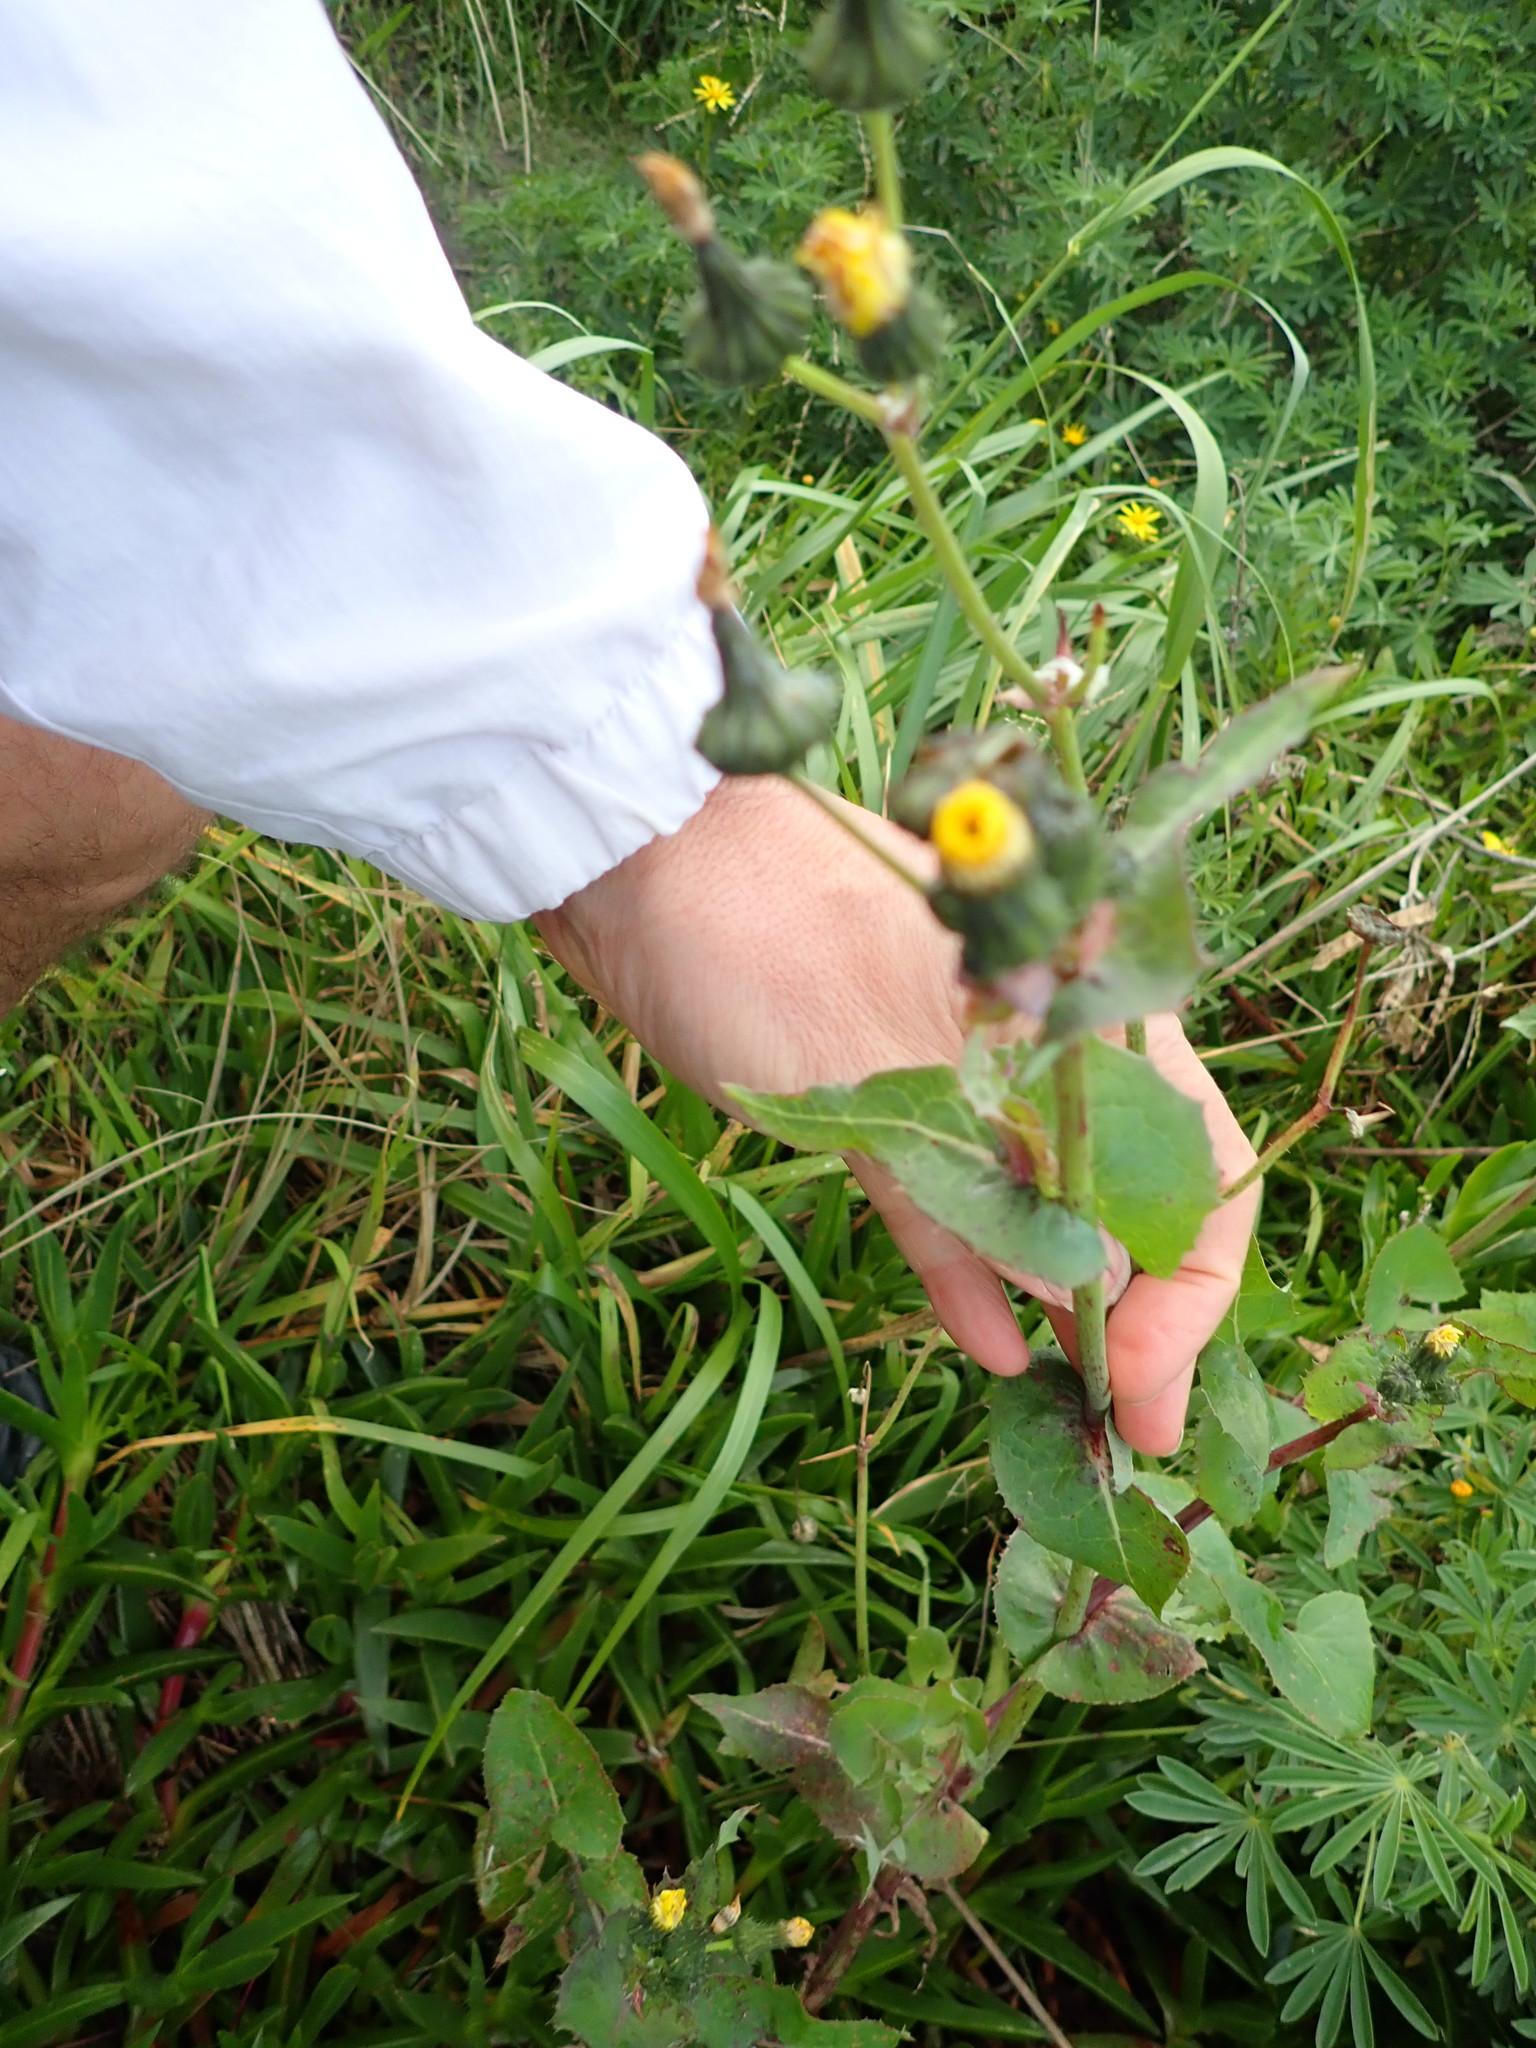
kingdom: Plantae
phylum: Tracheophyta
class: Magnoliopsida
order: Asterales
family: Asteraceae
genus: Sonchus
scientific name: Sonchus oleraceus
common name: Common sowthistle
